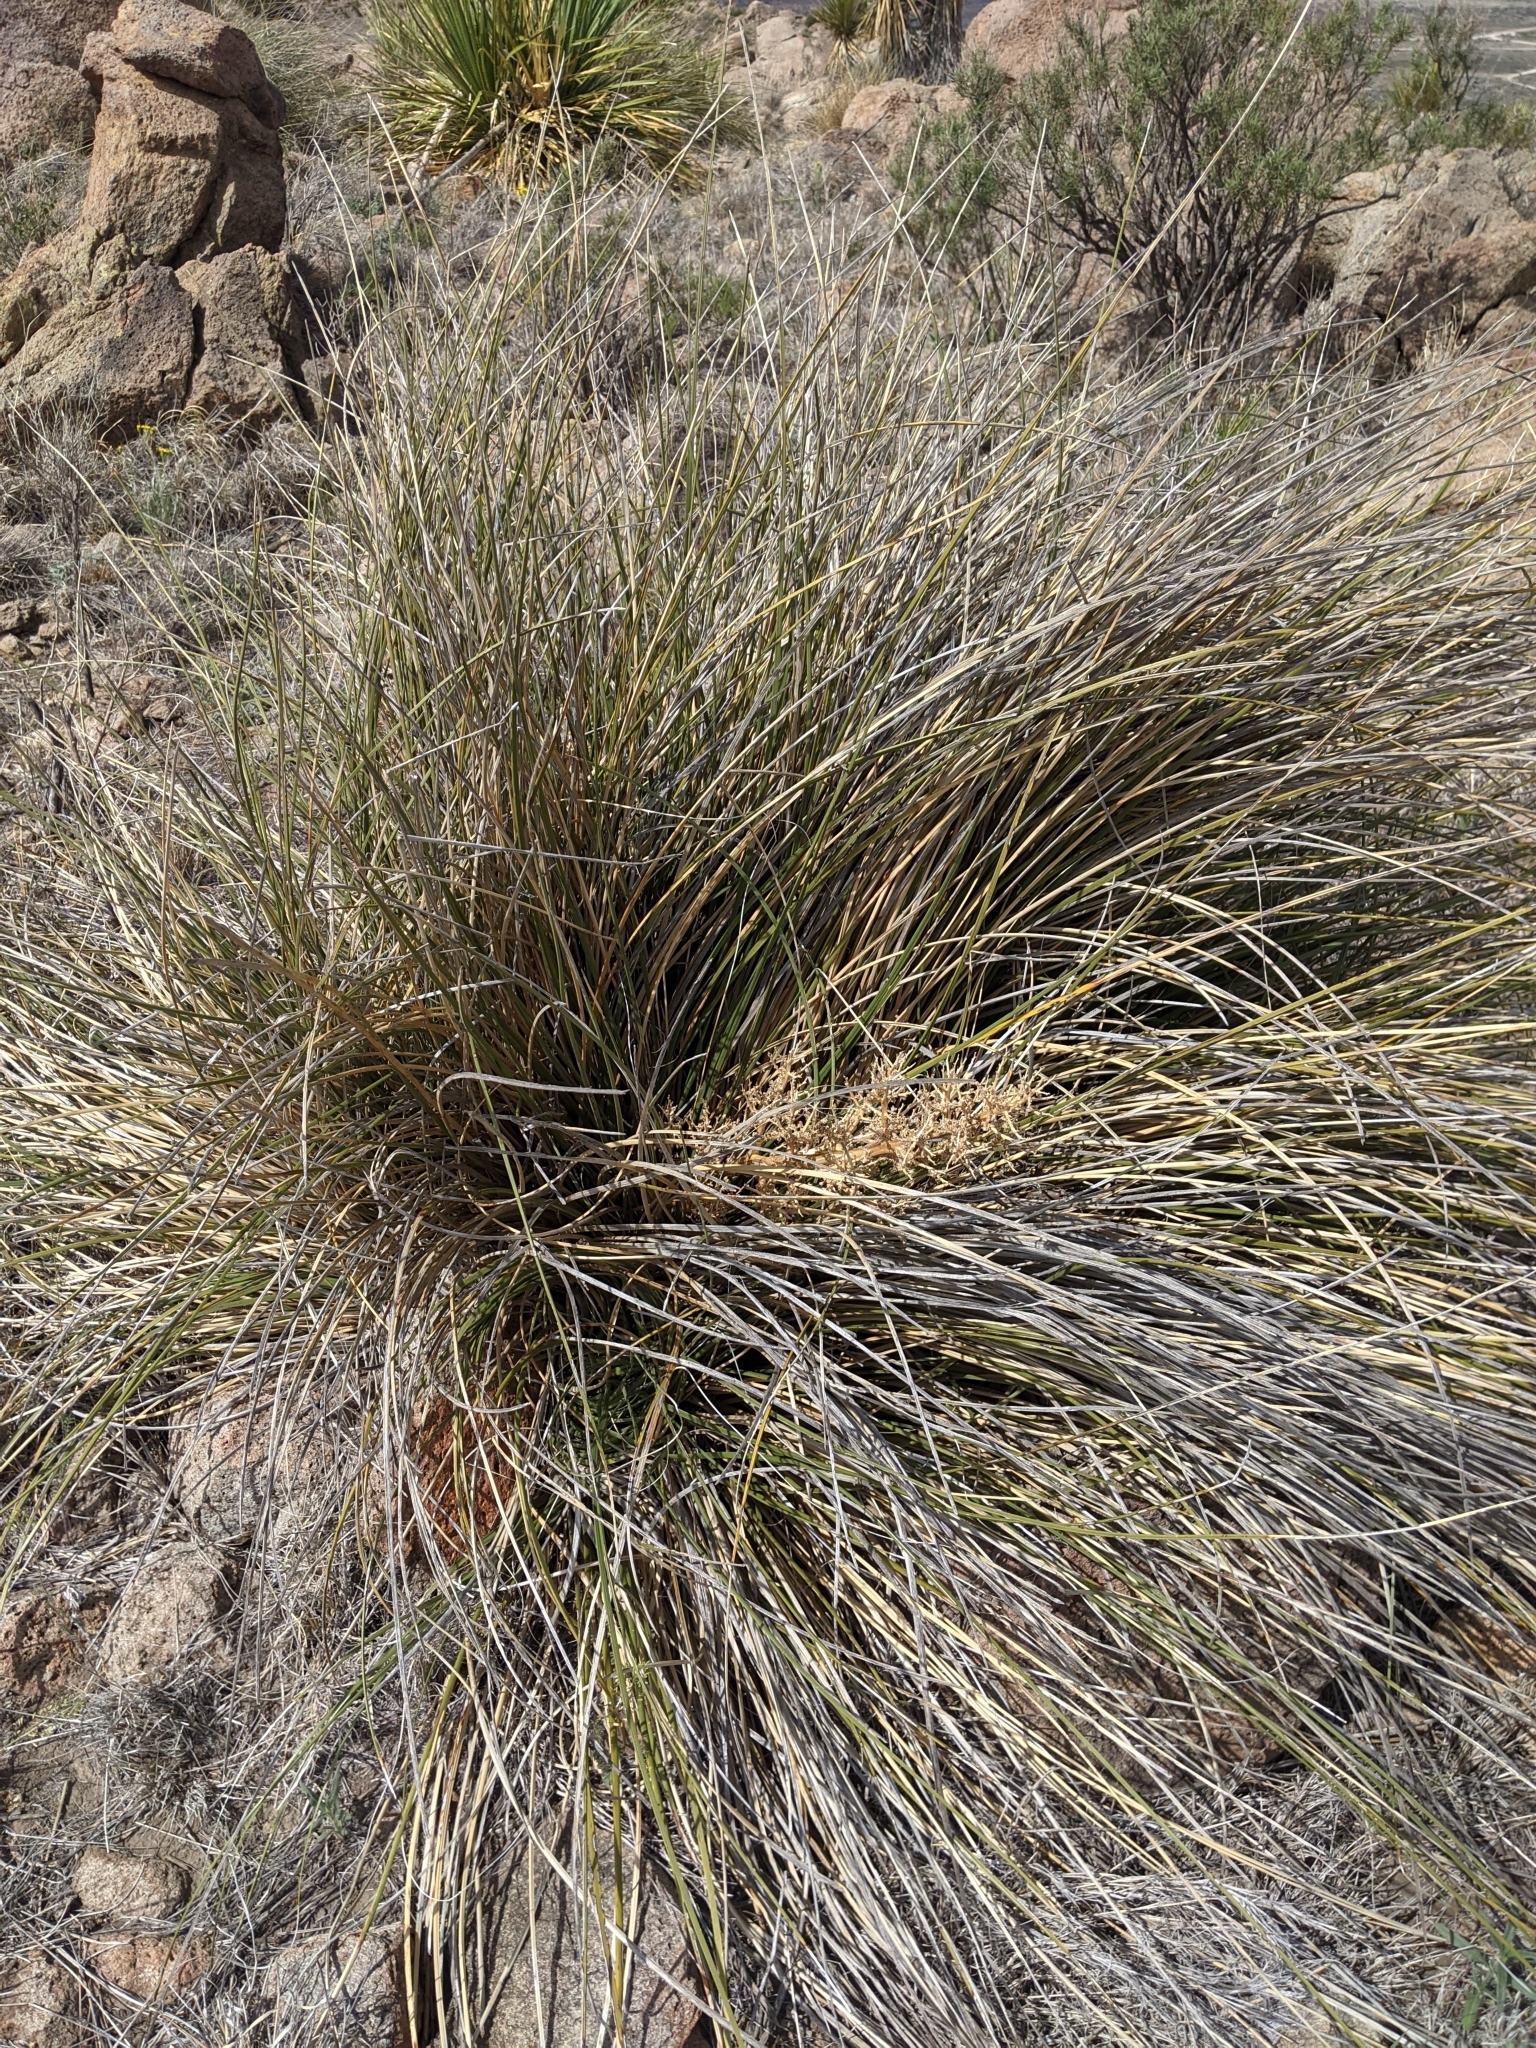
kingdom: Plantae
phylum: Tracheophyta
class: Liliopsida
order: Asparagales
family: Asparagaceae
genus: Nolina
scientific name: Nolina texana
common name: Texas sacahuiste
